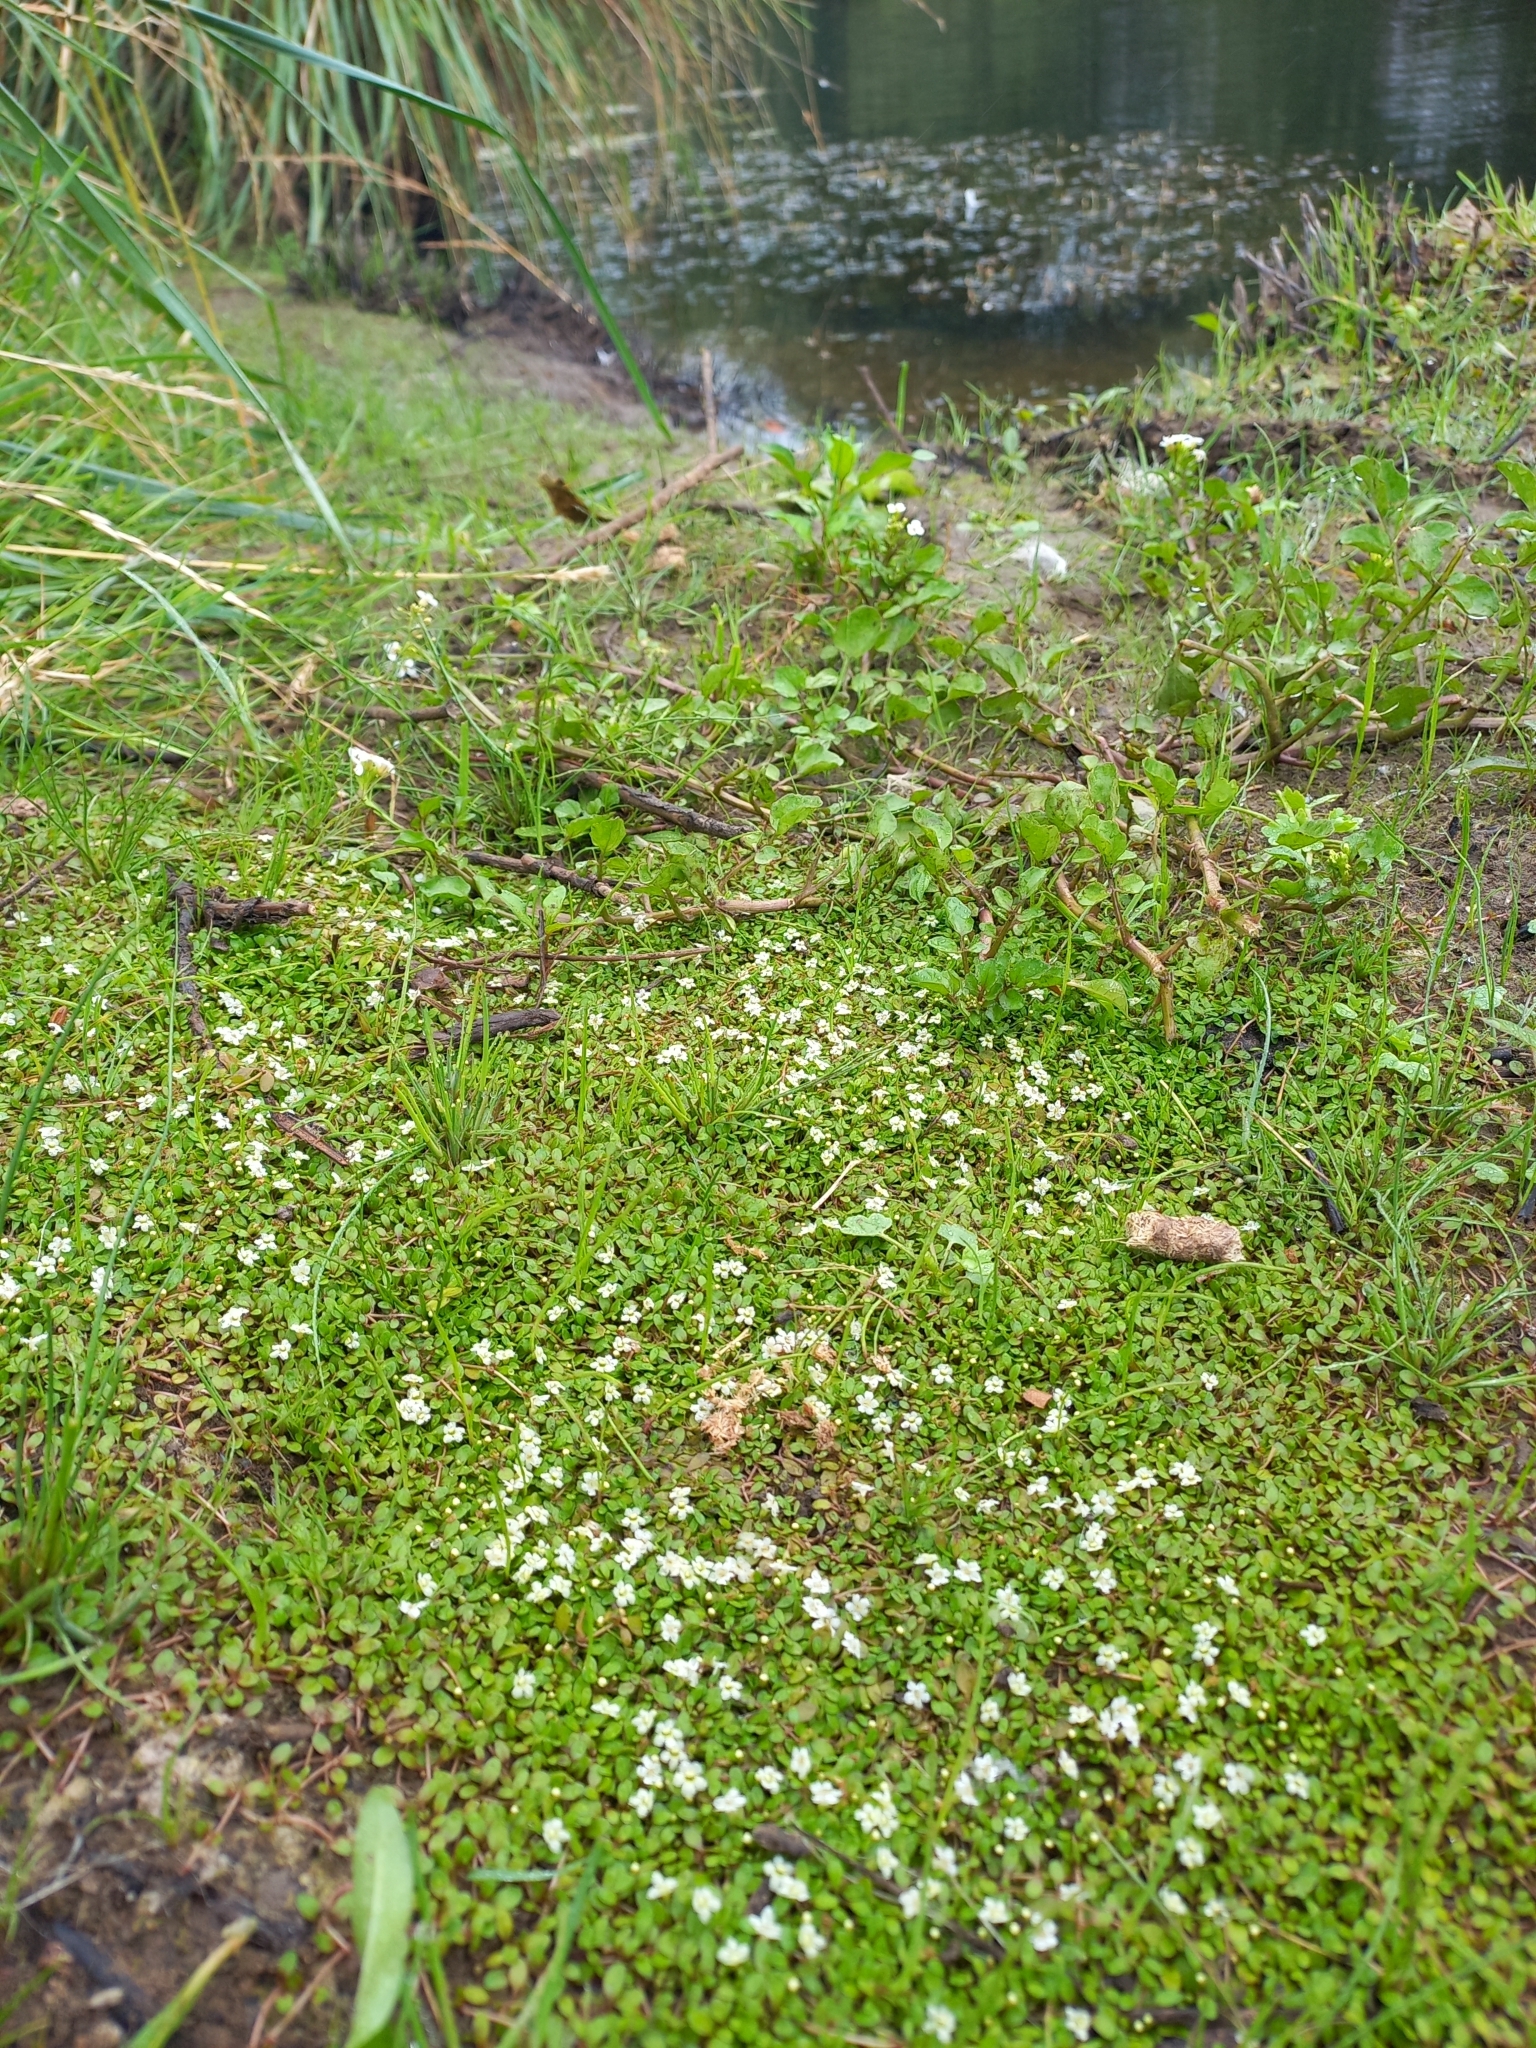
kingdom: Plantae
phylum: Tracheophyta
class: Magnoliopsida
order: Lamiales
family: Phrymaceae
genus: Glossostigma
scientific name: Glossostigma elatinoides
